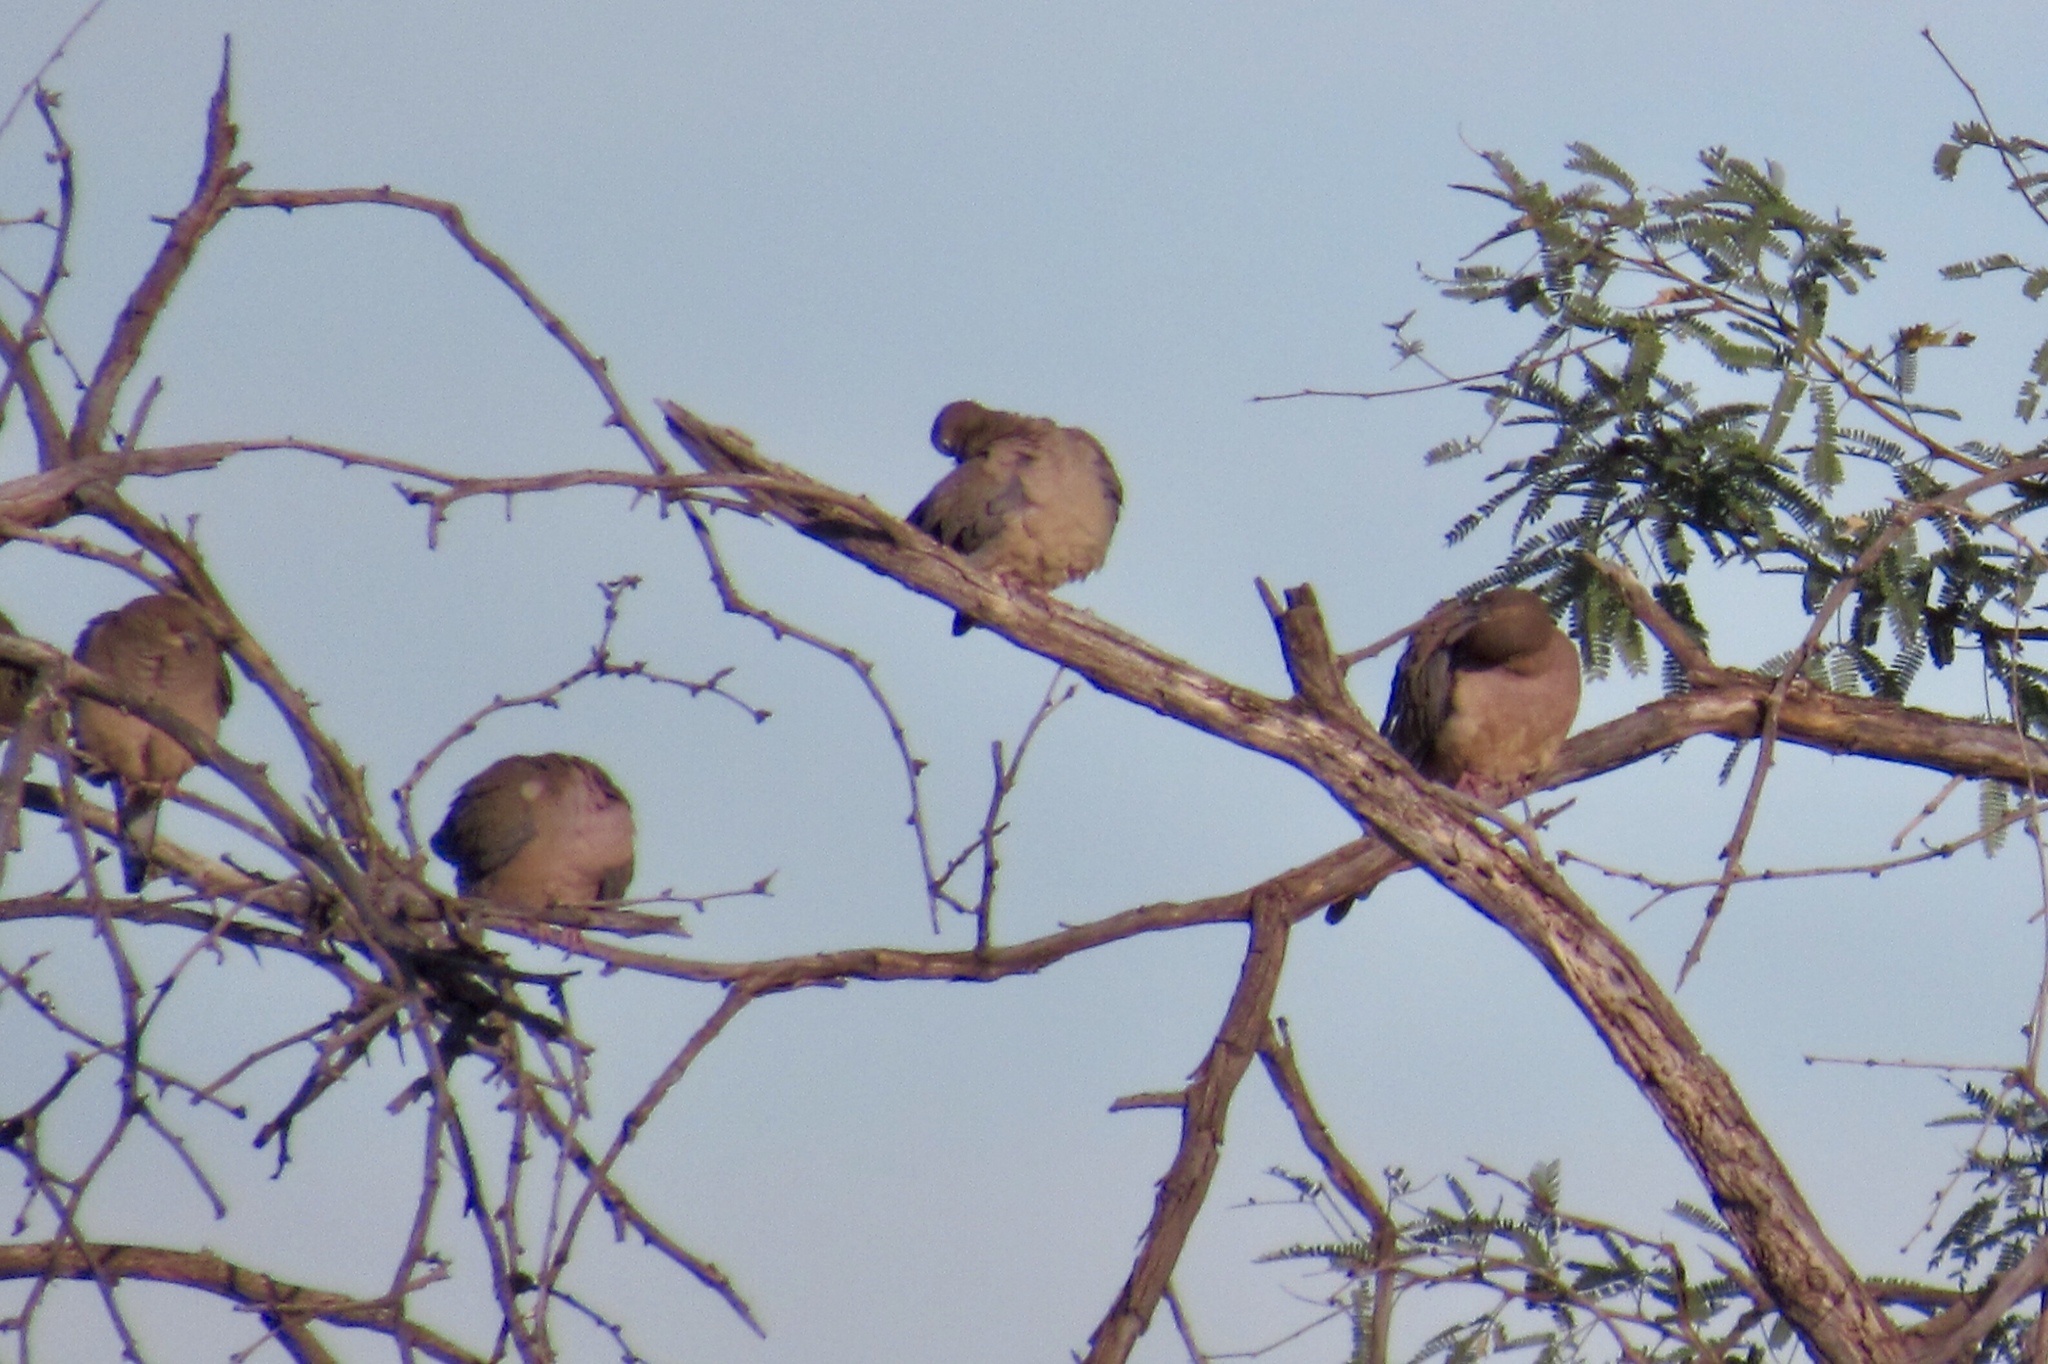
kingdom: Animalia
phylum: Chordata
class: Aves
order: Columbiformes
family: Columbidae
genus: Zenaida
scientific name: Zenaida macroura
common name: Mourning dove
